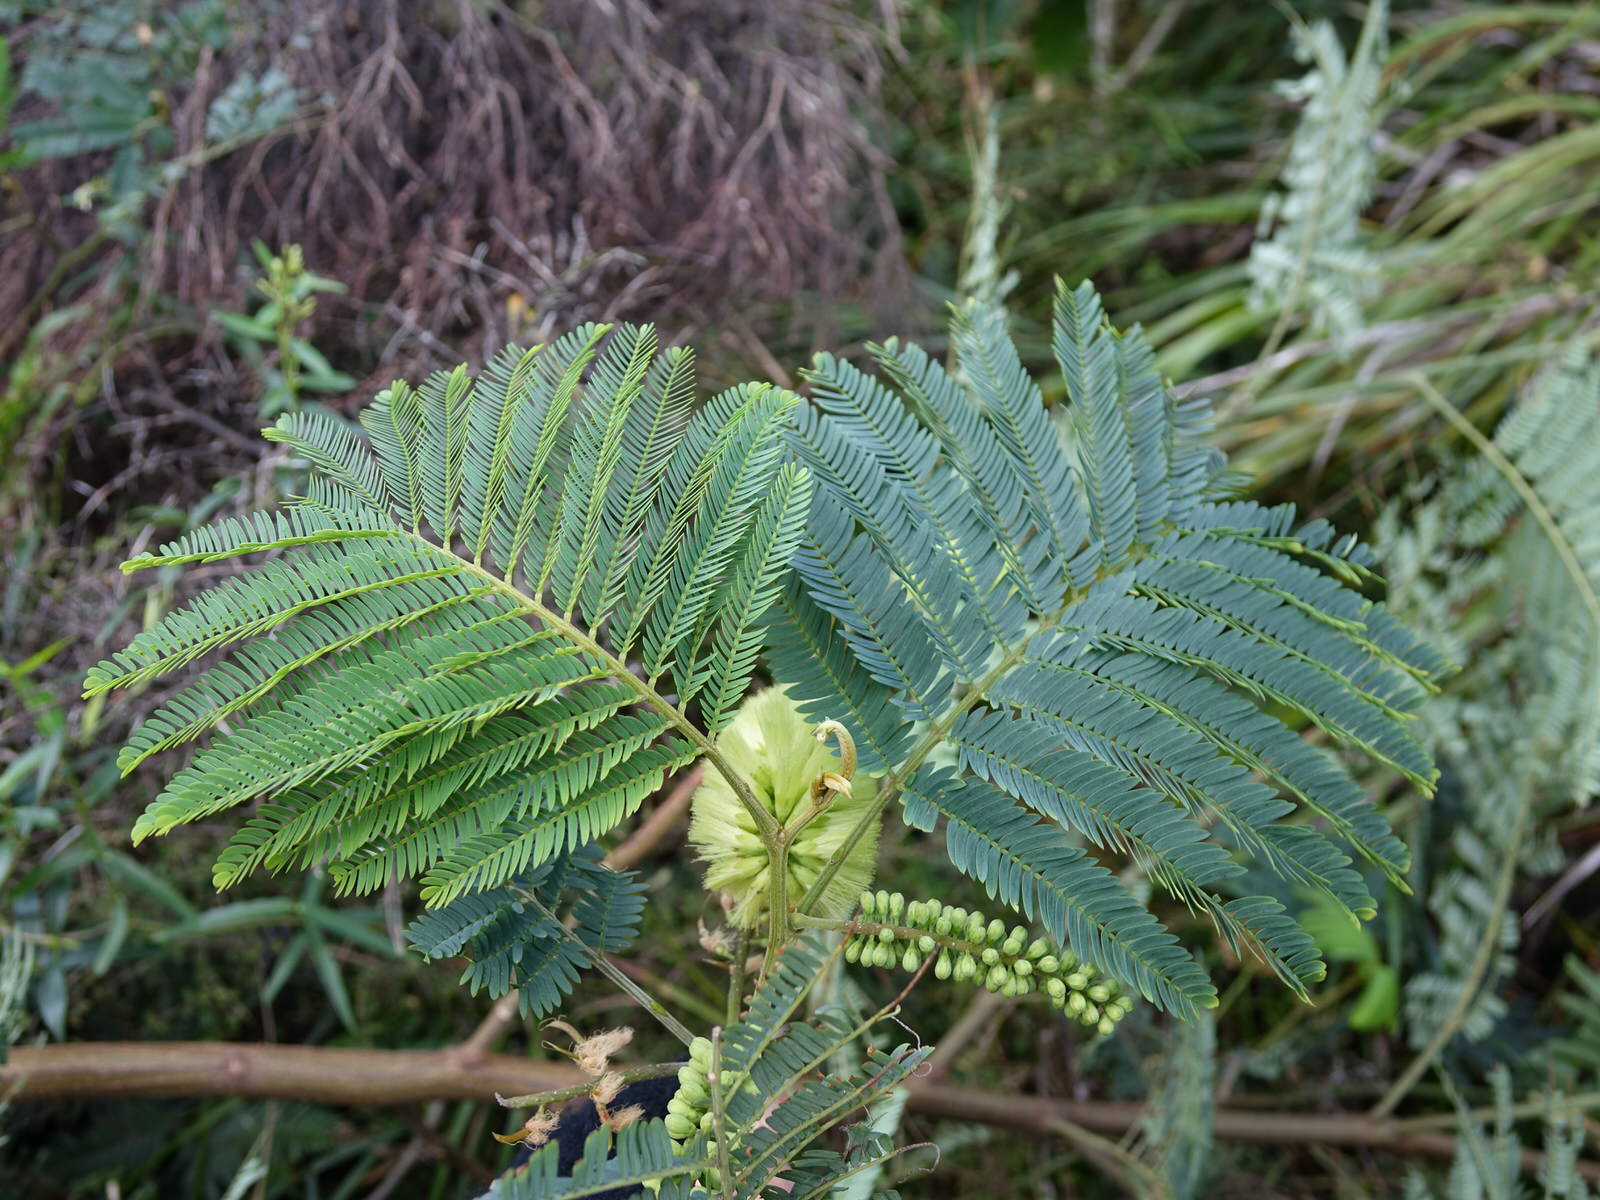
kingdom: Plantae
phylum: Tracheophyta
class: Magnoliopsida
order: Fabales
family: Fabaceae
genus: Paraserianthes
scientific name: Paraserianthes lophantha
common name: Plume albizia
